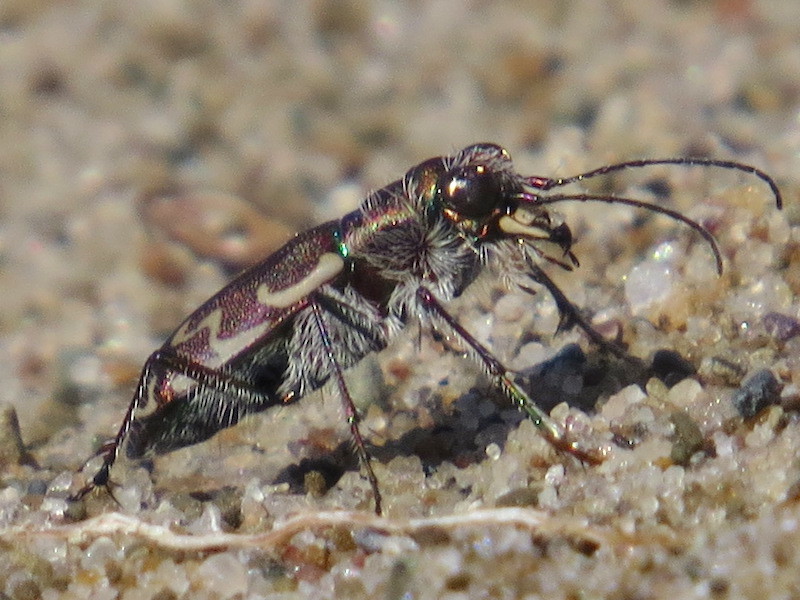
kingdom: Animalia
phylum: Arthropoda
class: Insecta
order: Coleoptera
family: Carabidae
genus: Cicindela
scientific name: Cicindela repanda
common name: Bronzed tiger beetle
